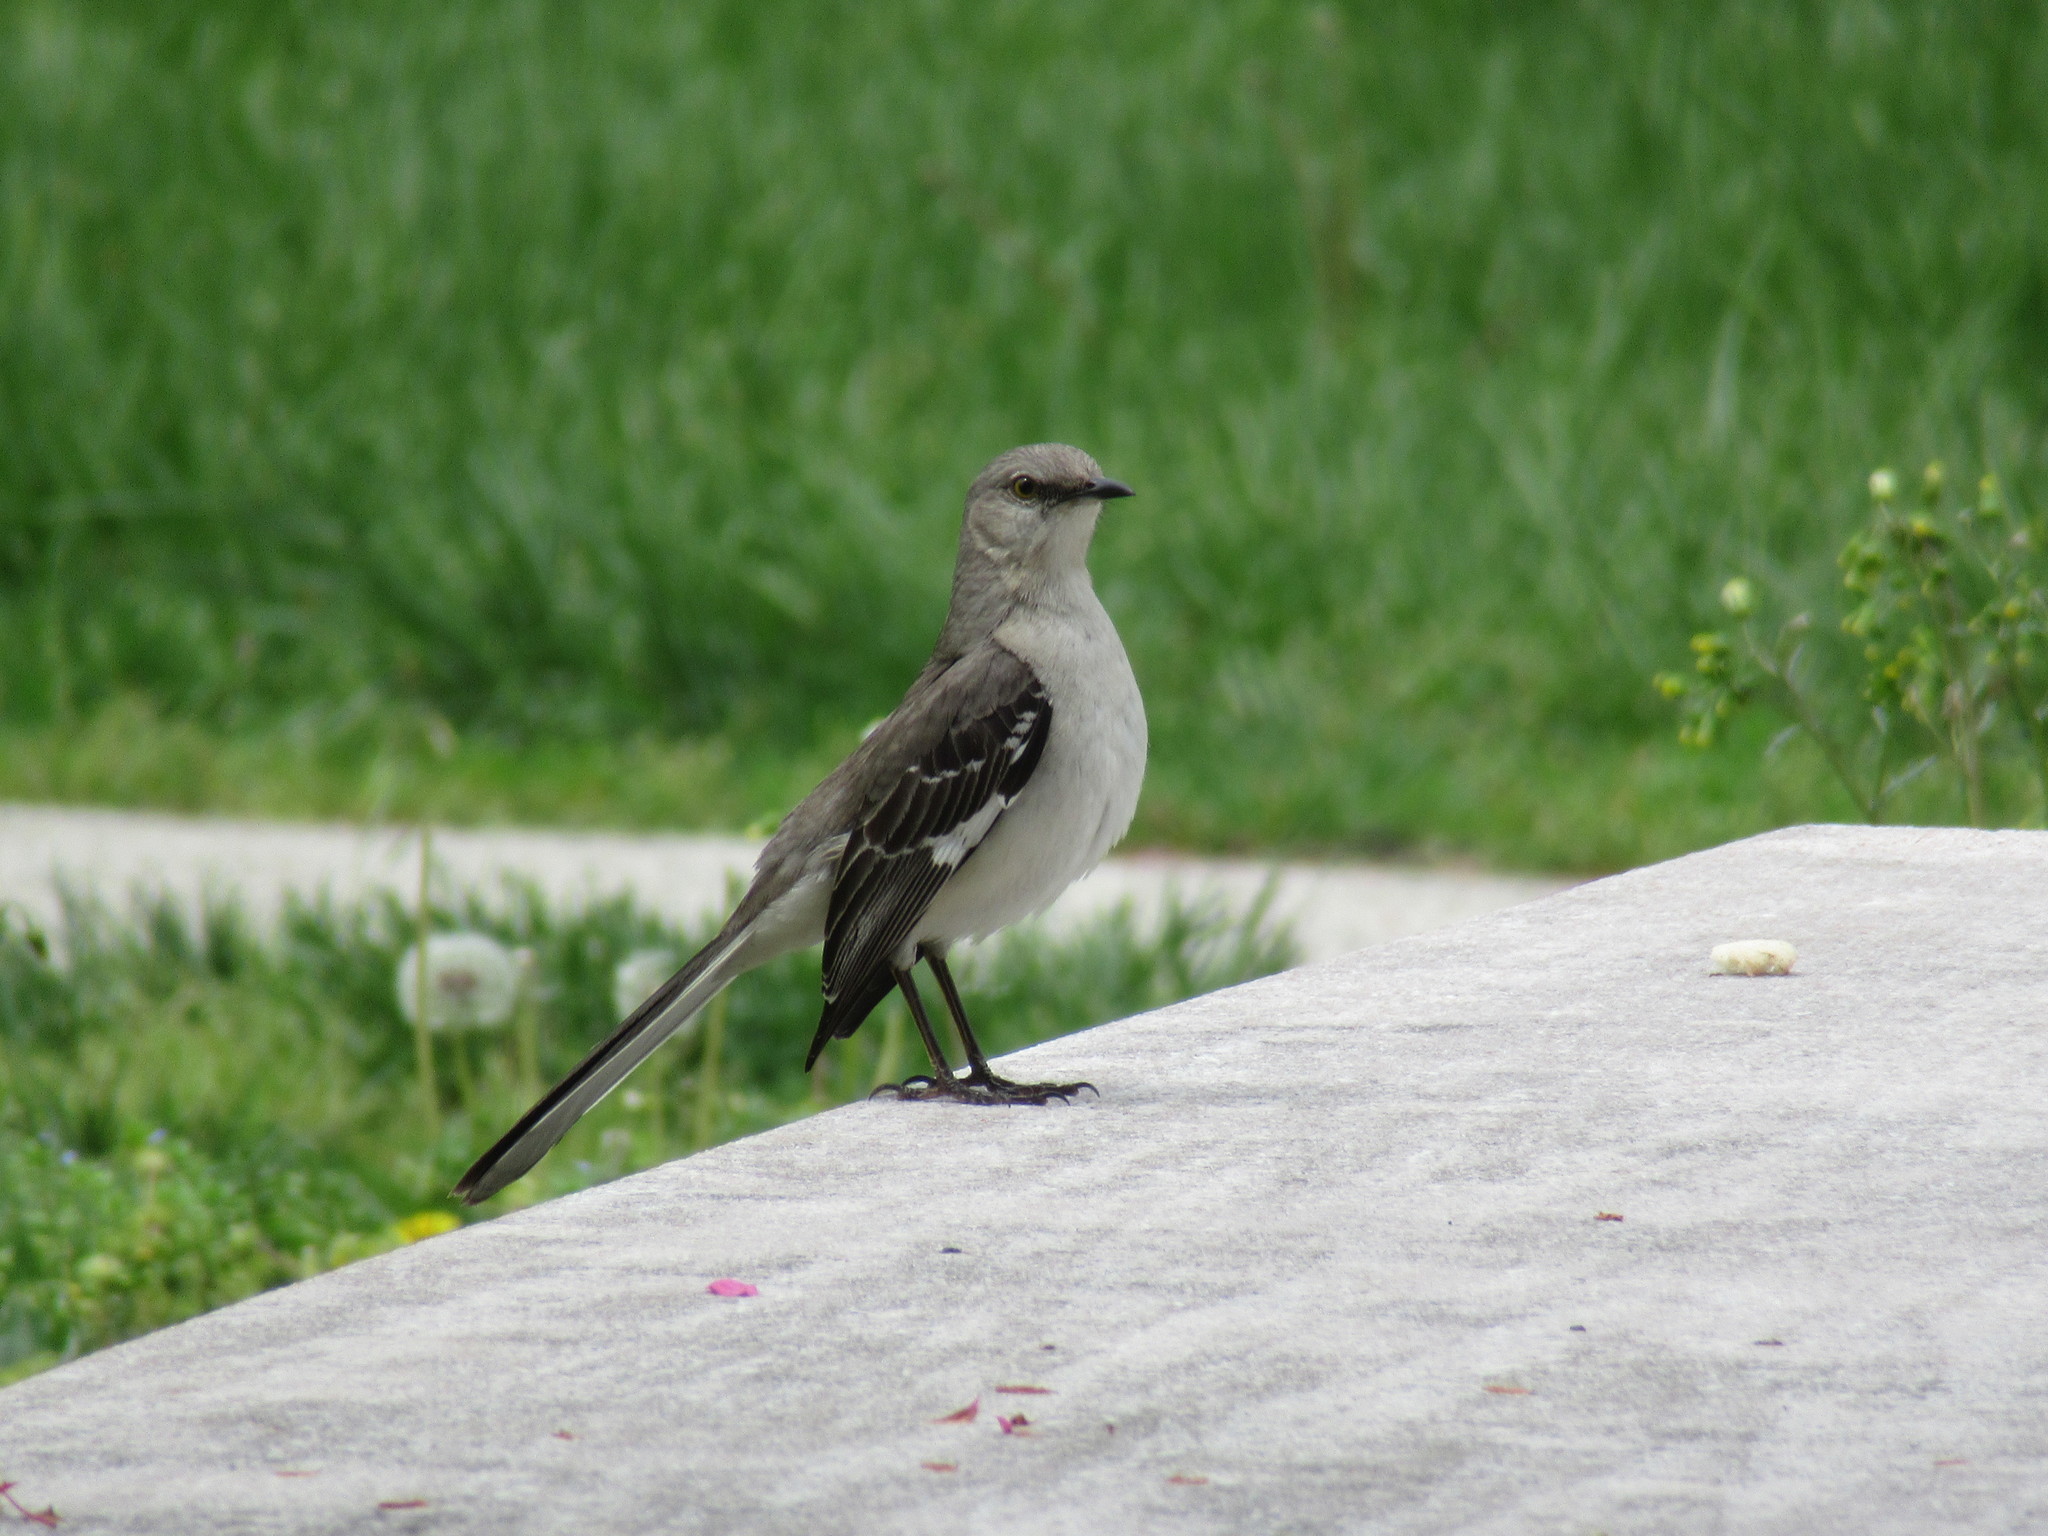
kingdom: Animalia
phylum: Chordata
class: Aves
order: Passeriformes
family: Mimidae
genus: Mimus
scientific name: Mimus polyglottos
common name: Northern mockingbird
